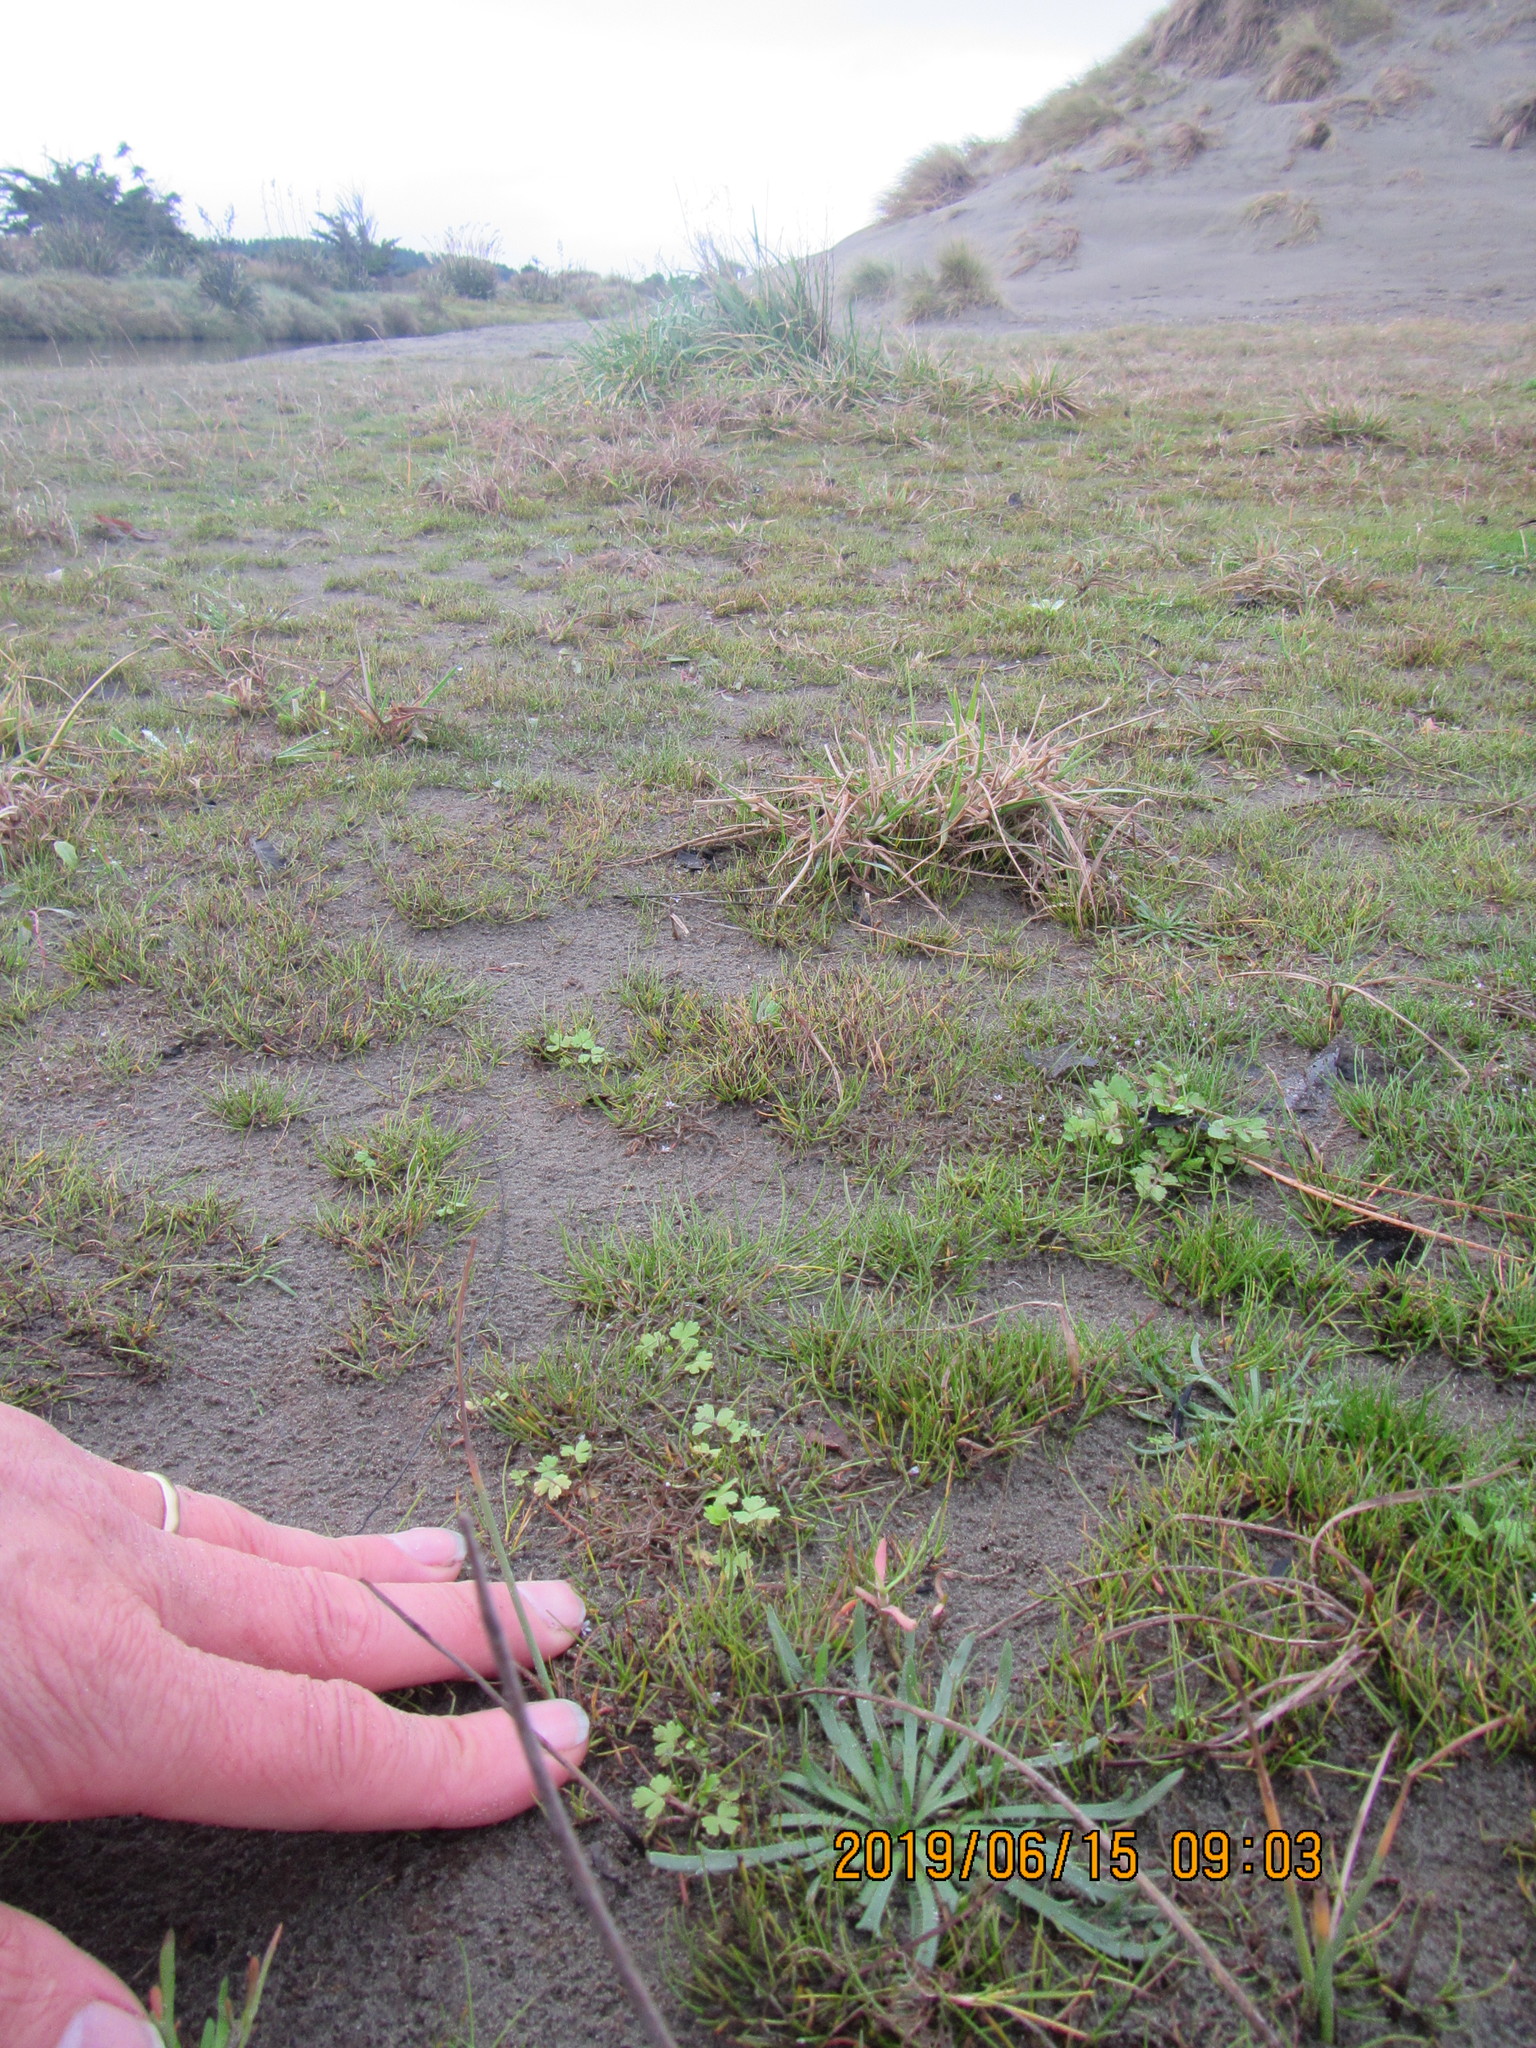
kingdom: Plantae
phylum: Tracheophyta
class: Magnoliopsida
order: Apiales
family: Apiaceae
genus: Helosciadium
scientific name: Helosciadium nodiflorum
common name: Fool's-watercress
